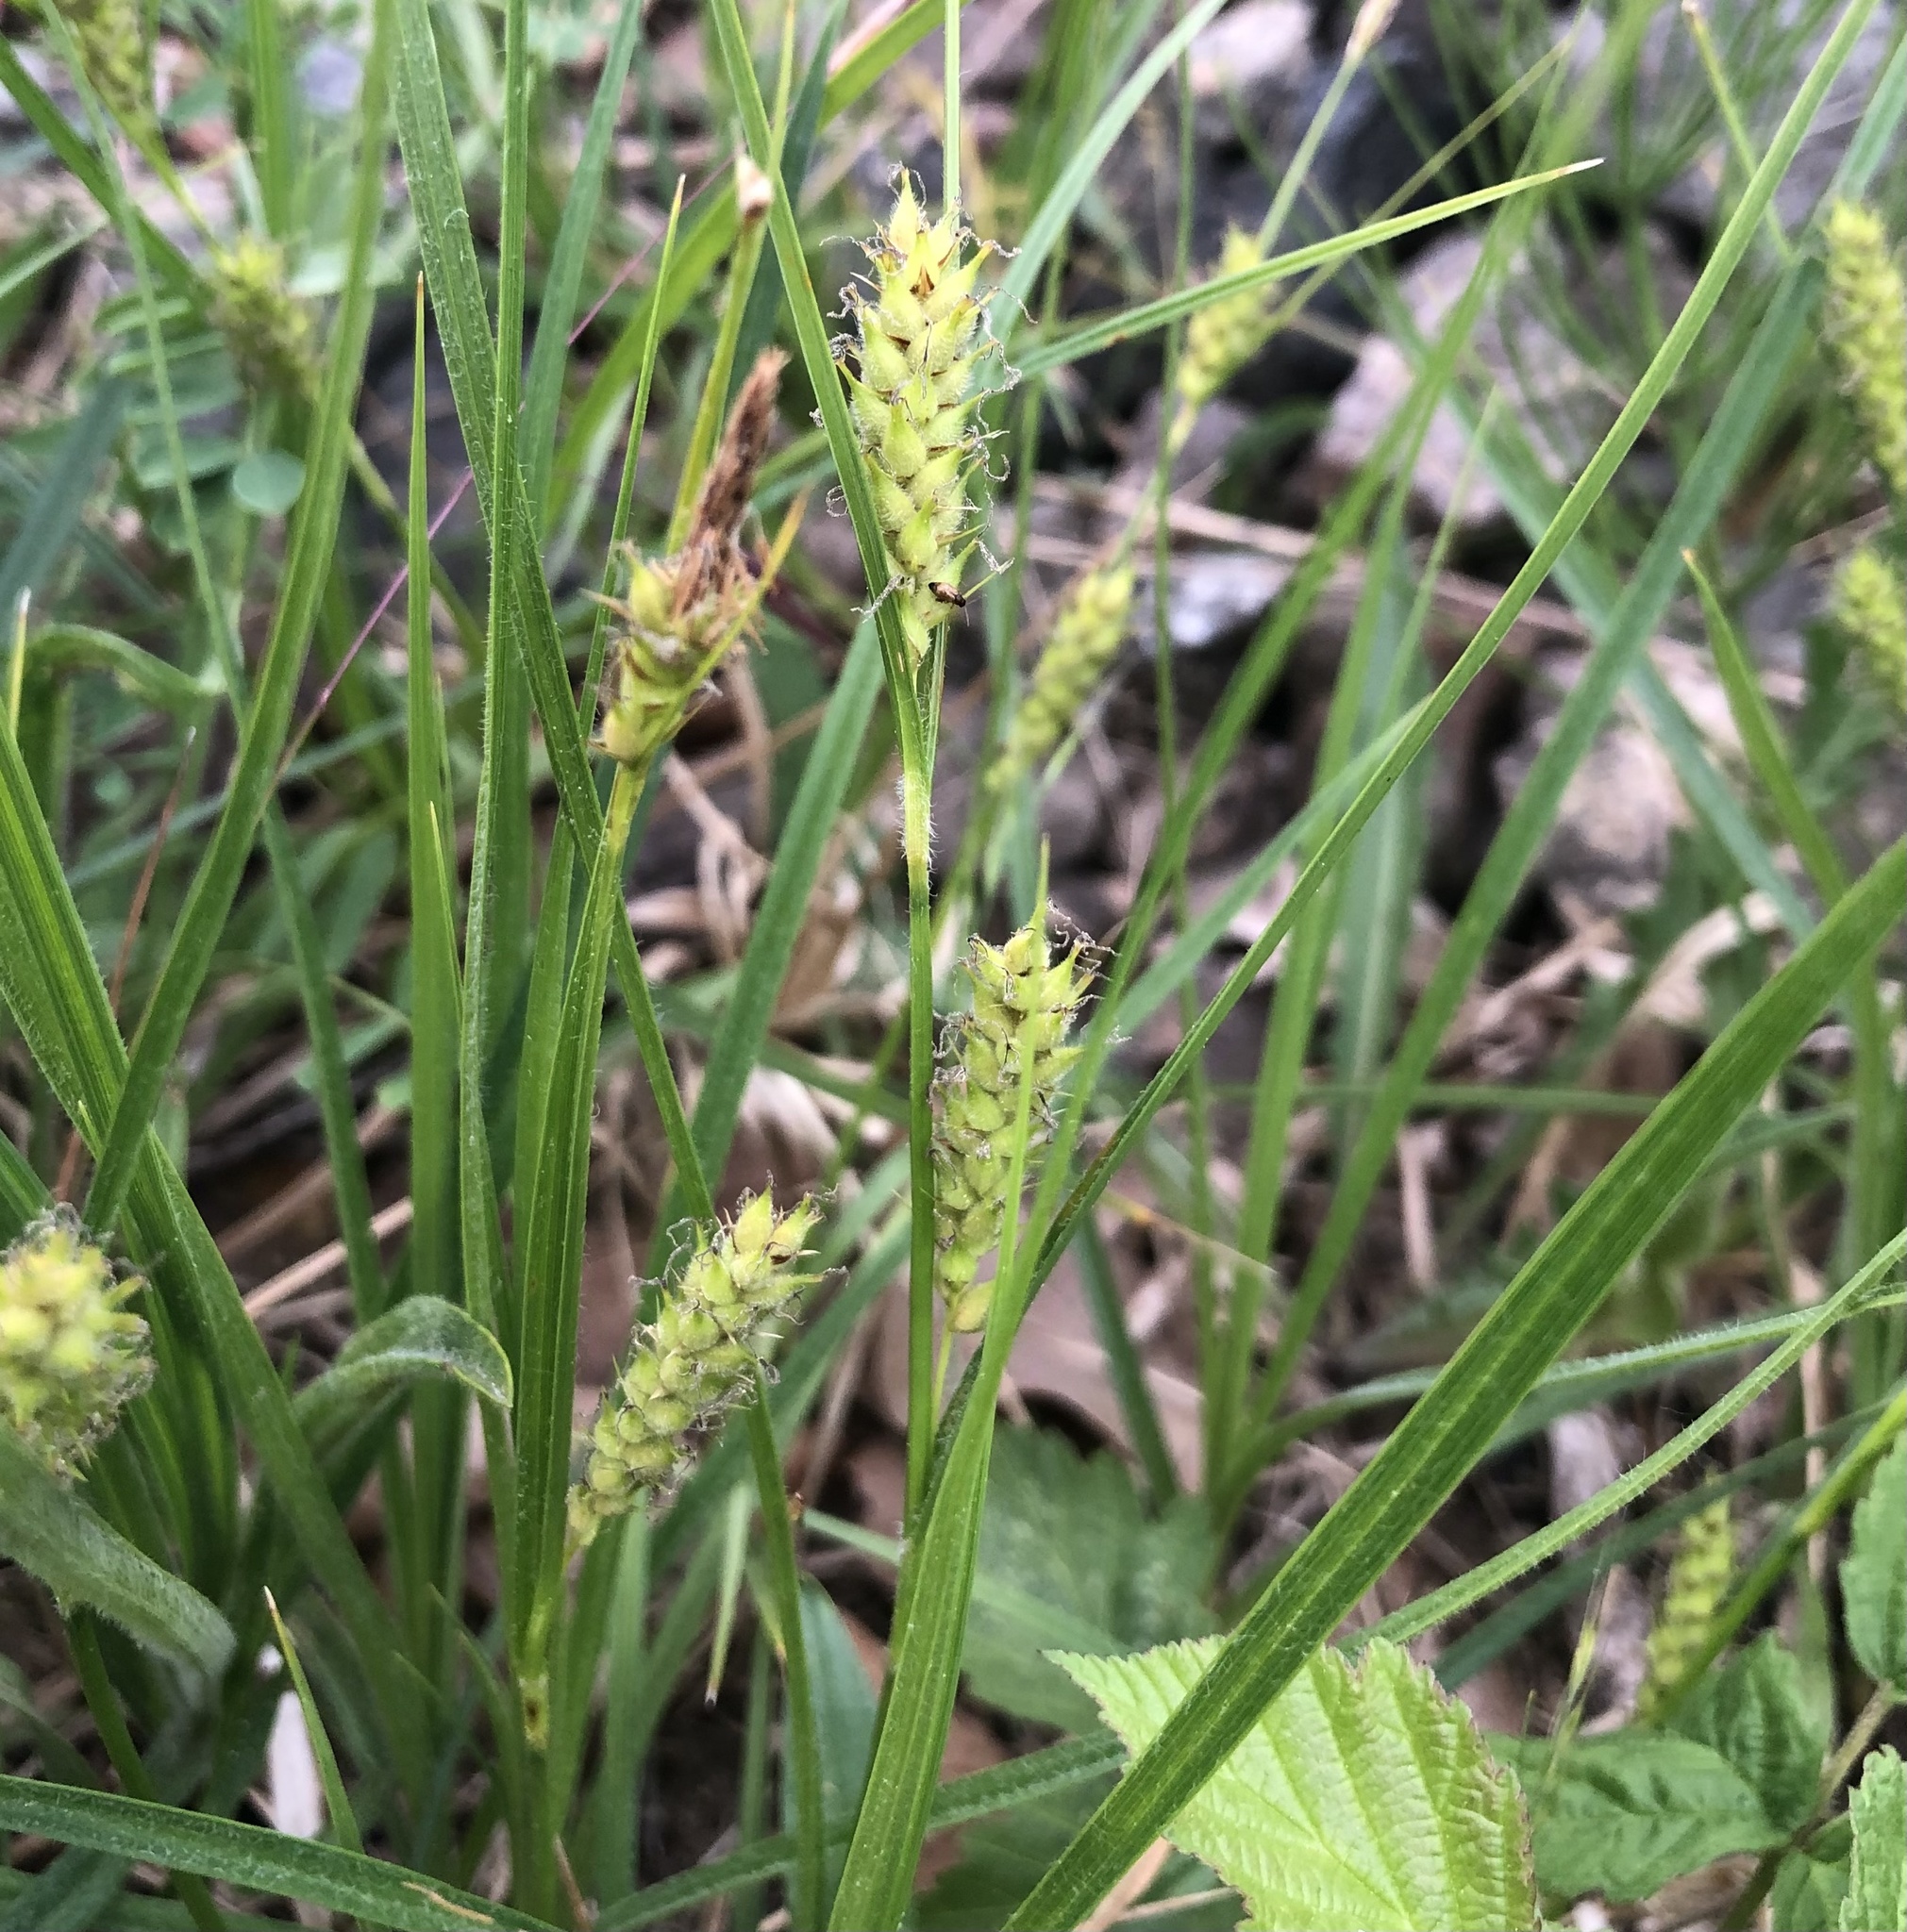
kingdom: Plantae
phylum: Tracheophyta
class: Liliopsida
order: Poales
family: Cyperaceae
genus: Carex
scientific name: Carex hirta
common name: Hairy sedge
